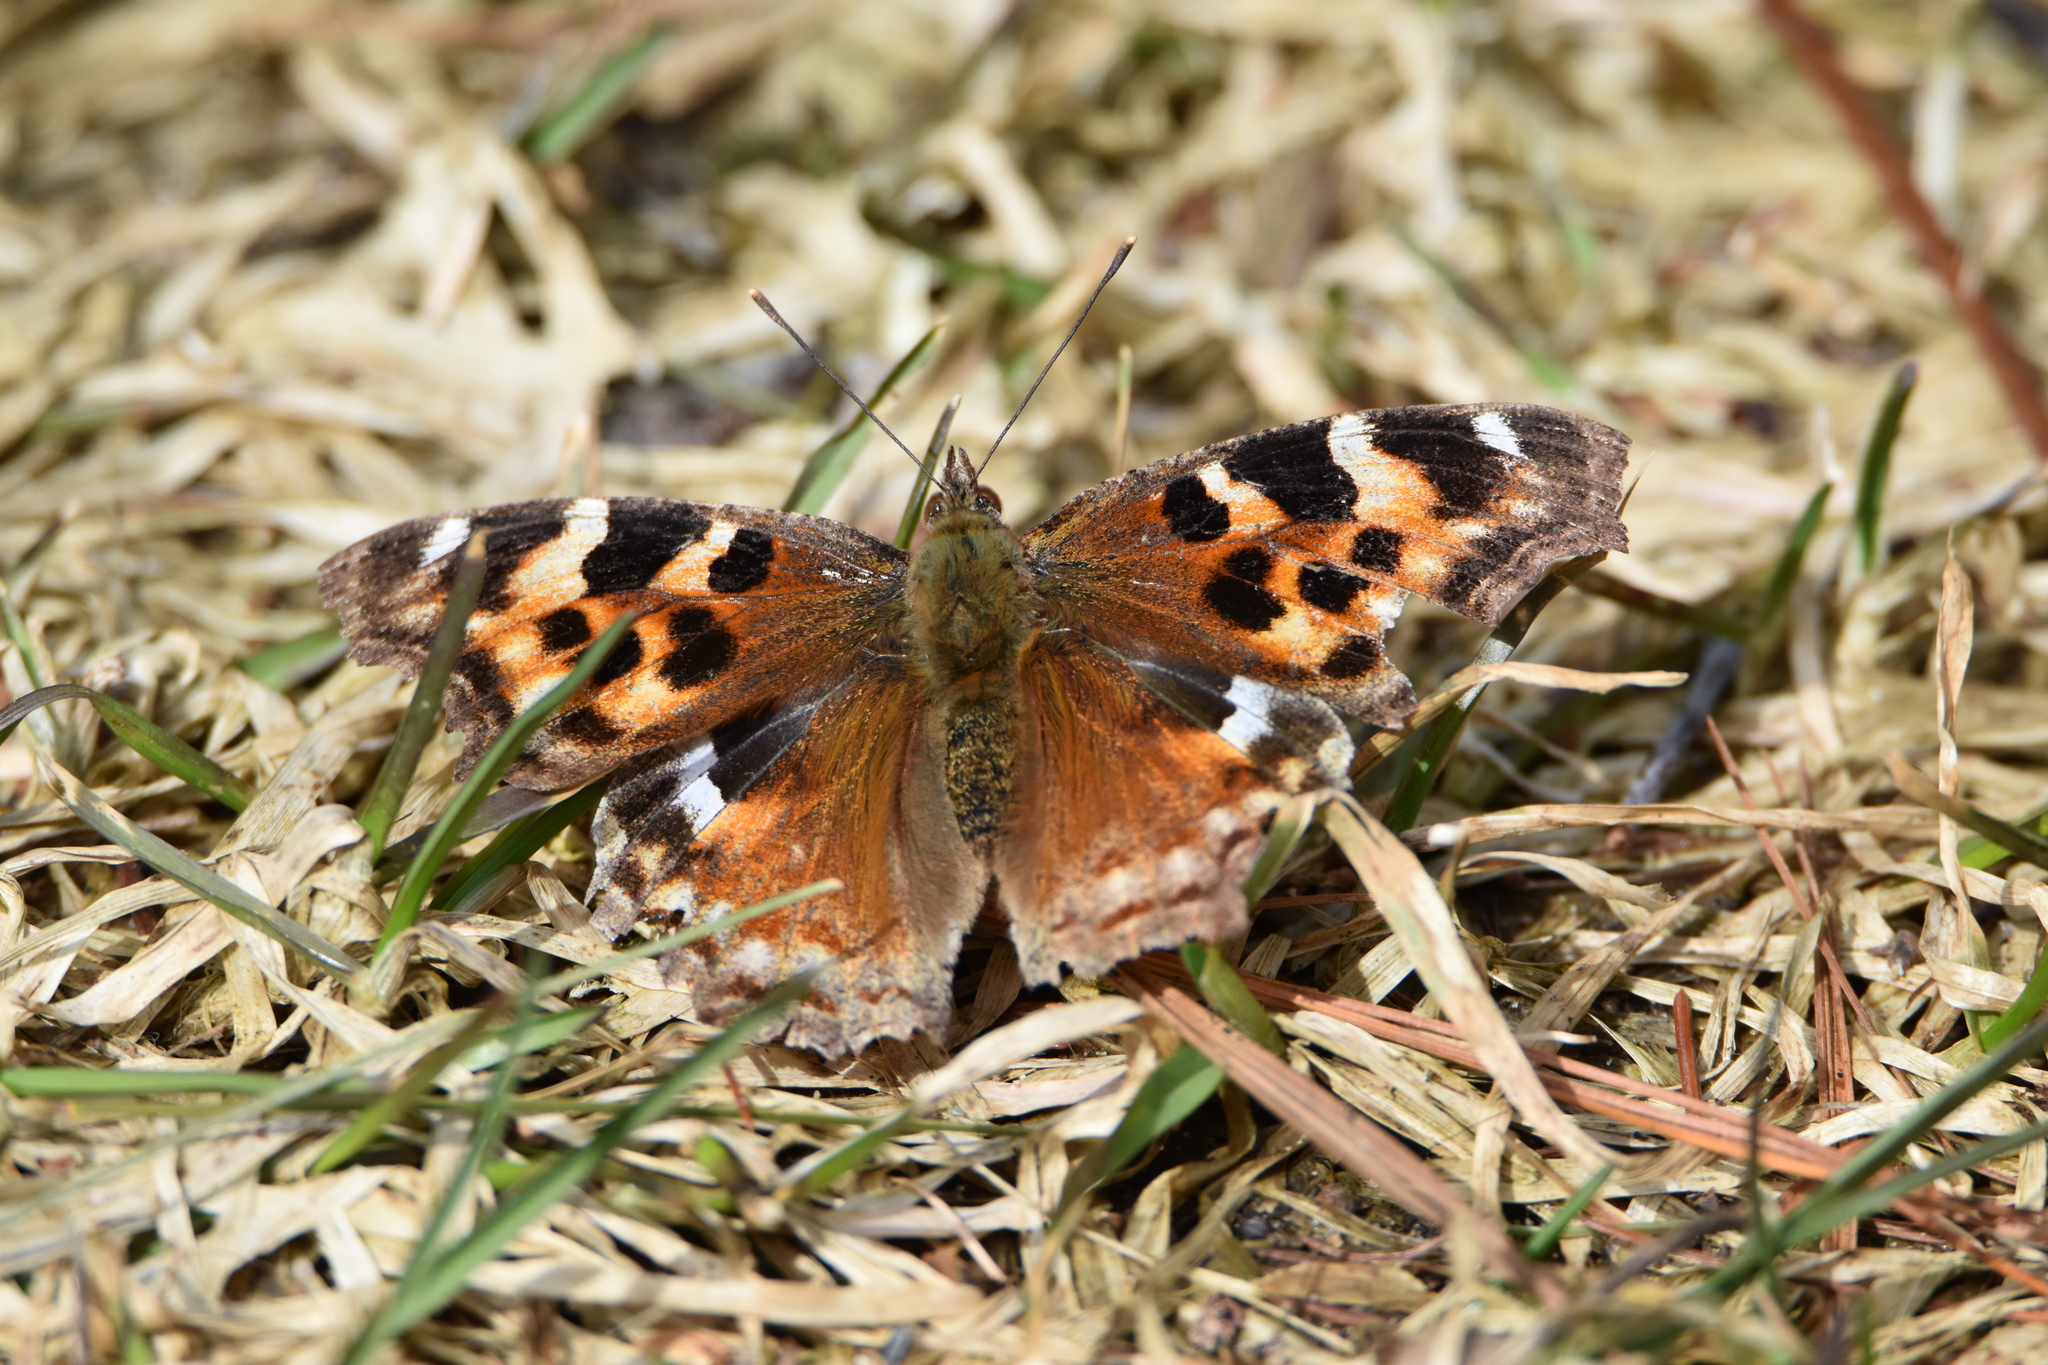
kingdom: Animalia
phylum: Arthropoda
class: Insecta
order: Lepidoptera
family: Nymphalidae
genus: Polygonia
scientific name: Polygonia vaualbum
